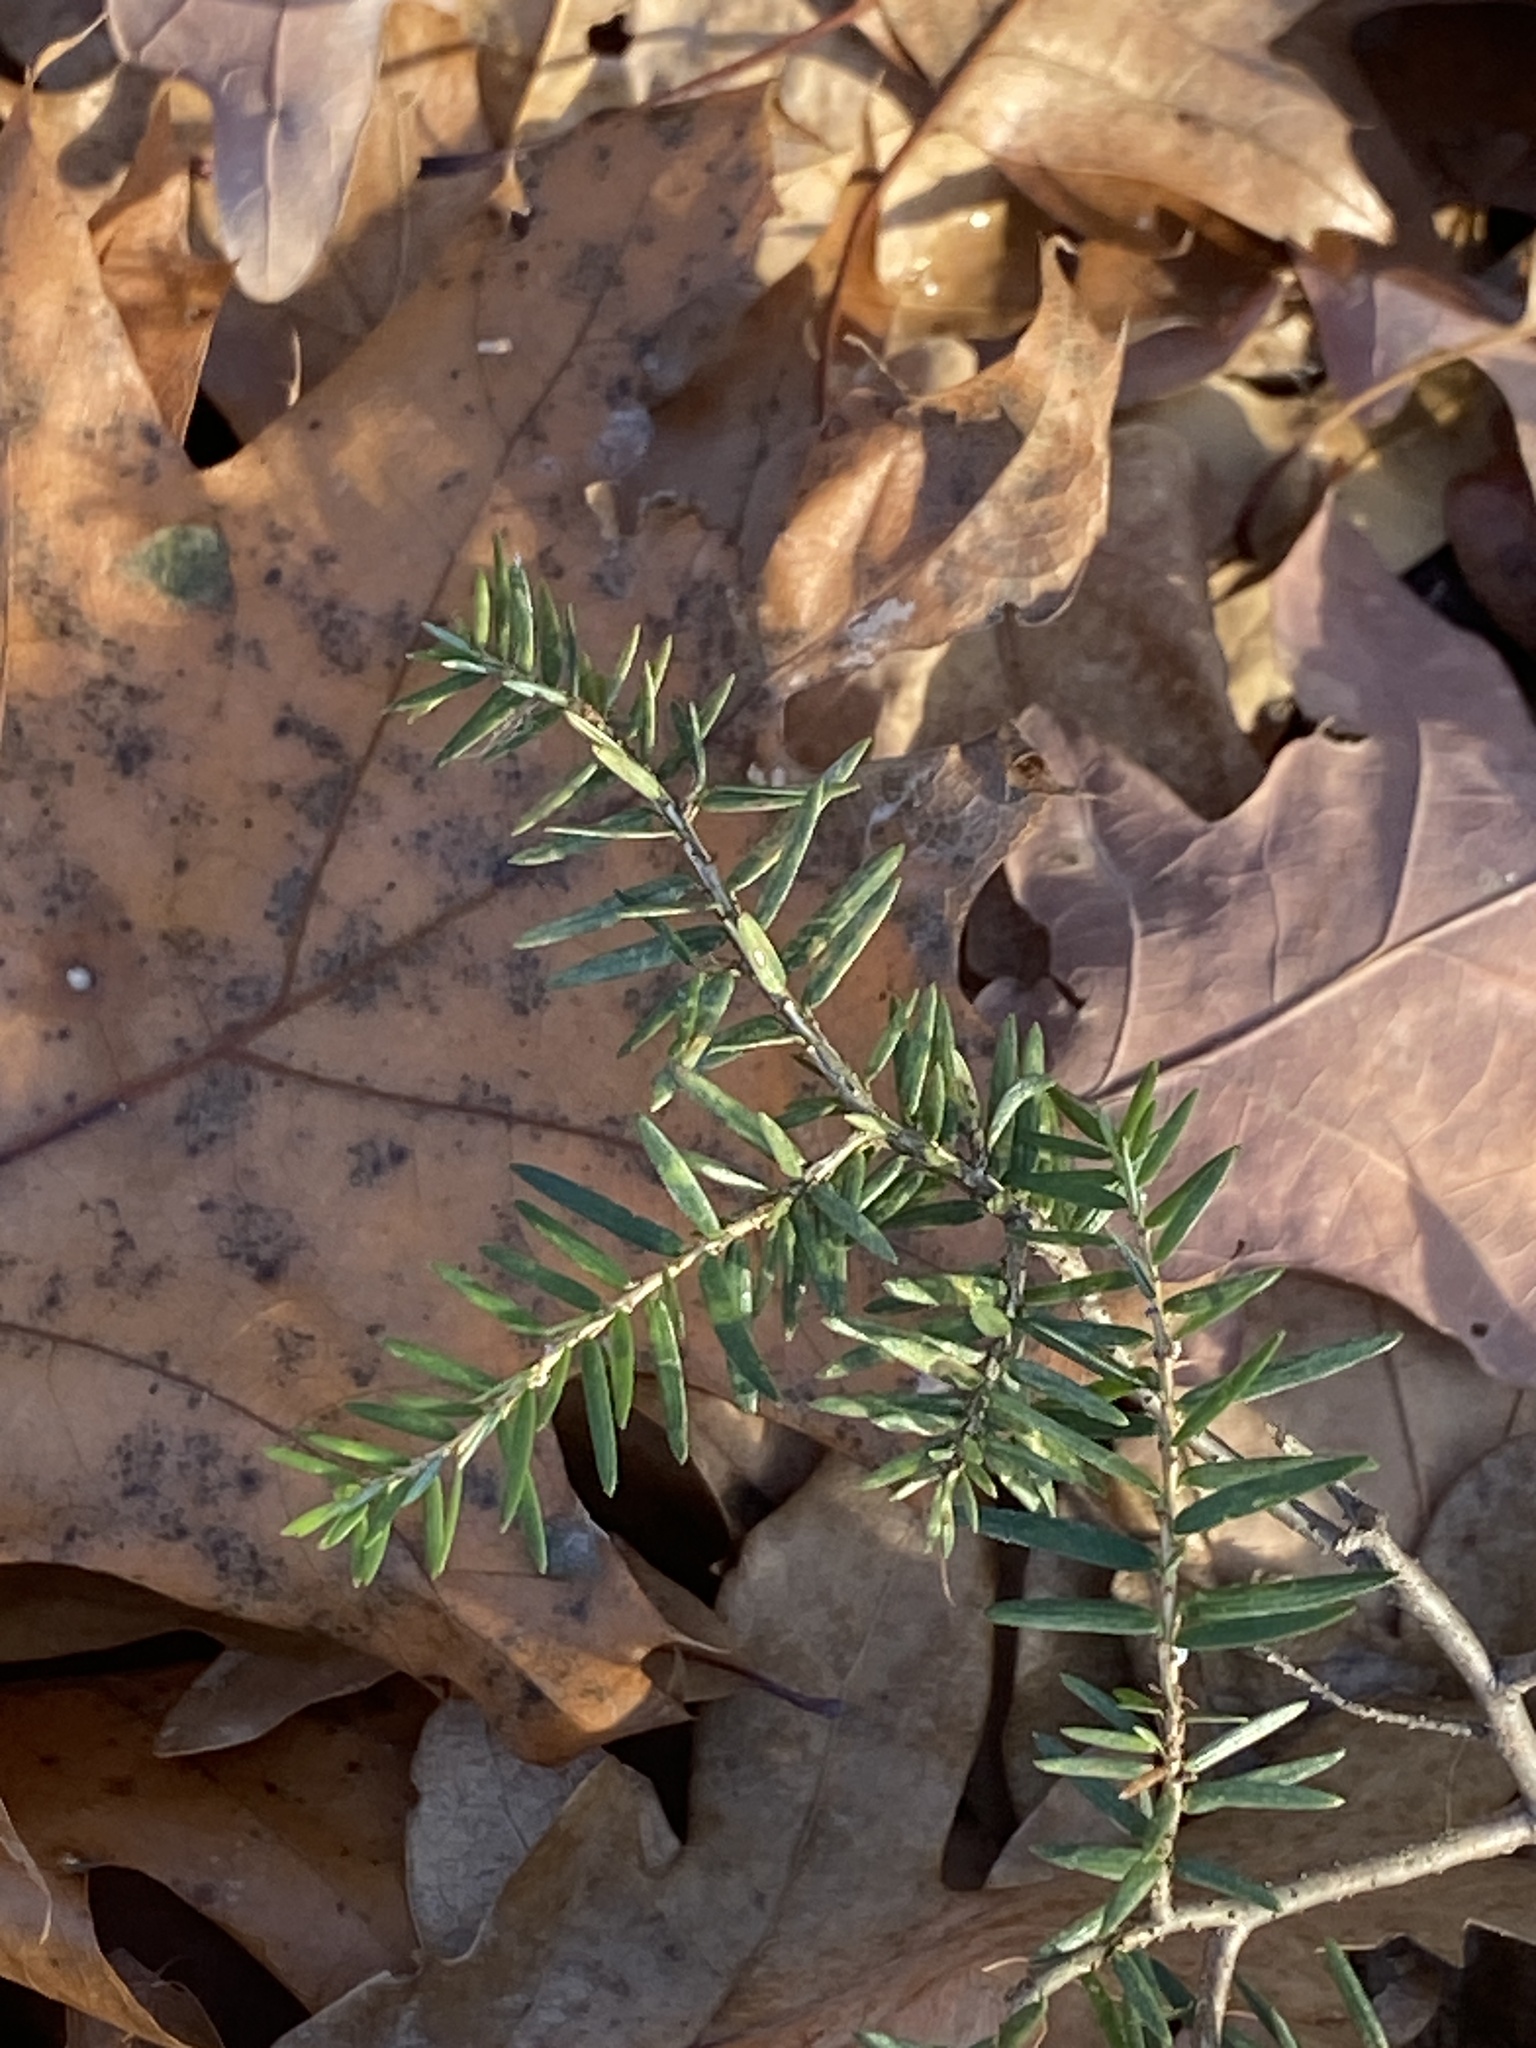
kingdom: Plantae
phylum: Tracheophyta
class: Pinopsida
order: Pinales
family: Pinaceae
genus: Tsuga
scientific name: Tsuga canadensis
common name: Eastern hemlock
